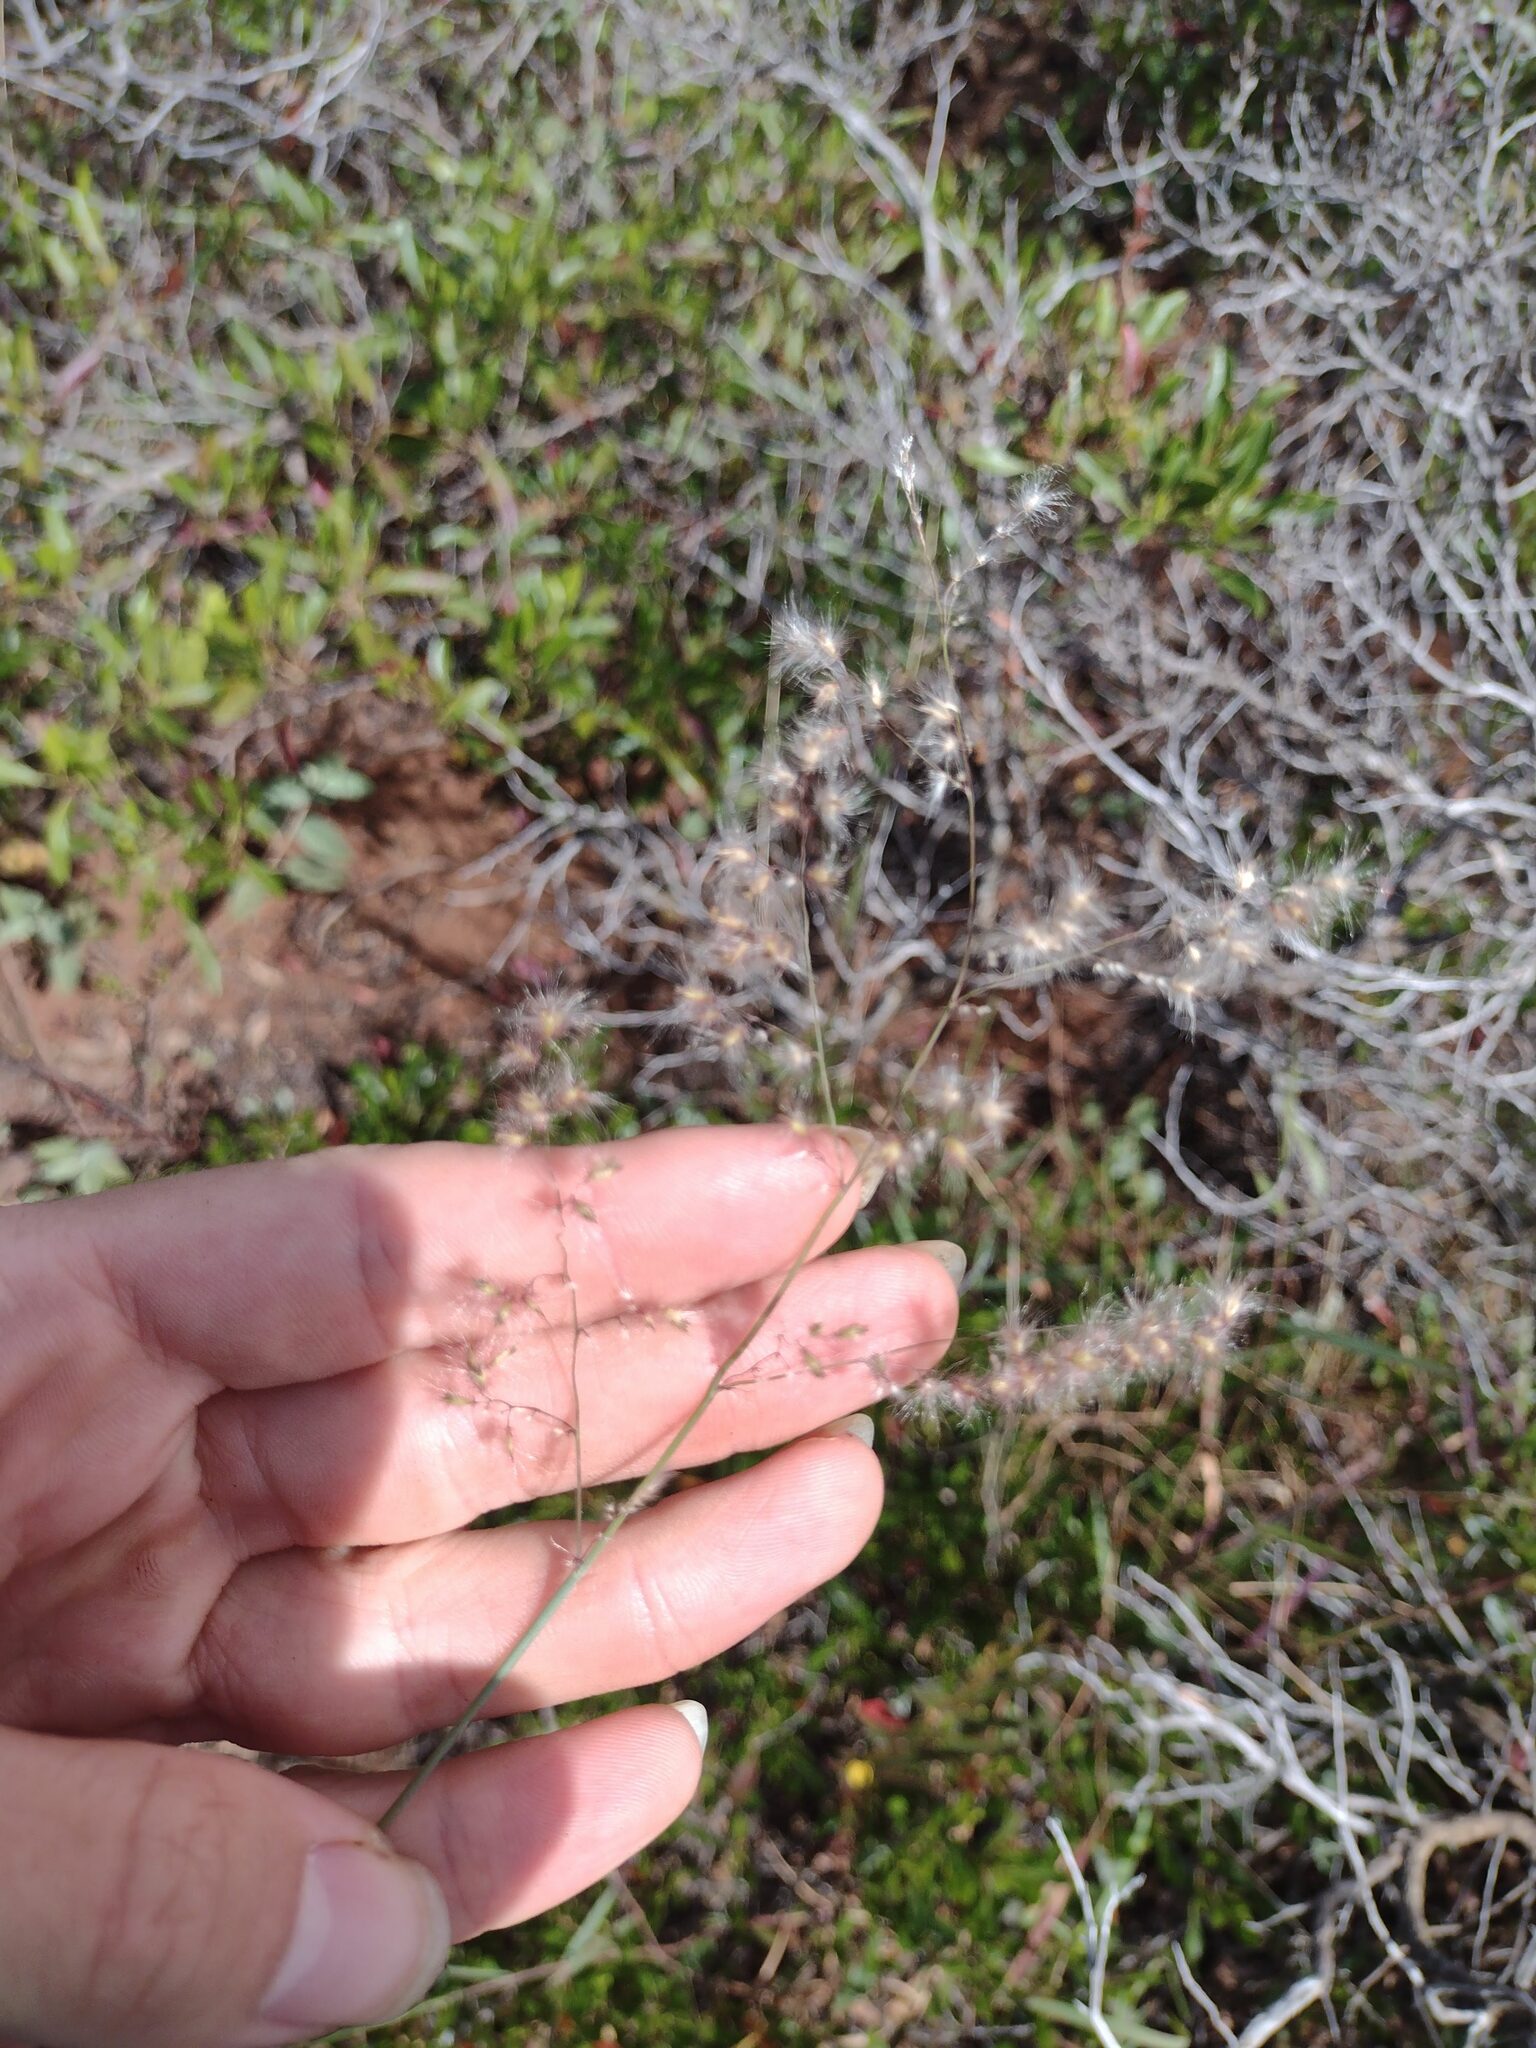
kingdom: Plantae
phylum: Tracheophyta
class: Liliopsida
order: Poales
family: Poaceae
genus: Melinis
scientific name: Melinis repens
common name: Rose natal grass
